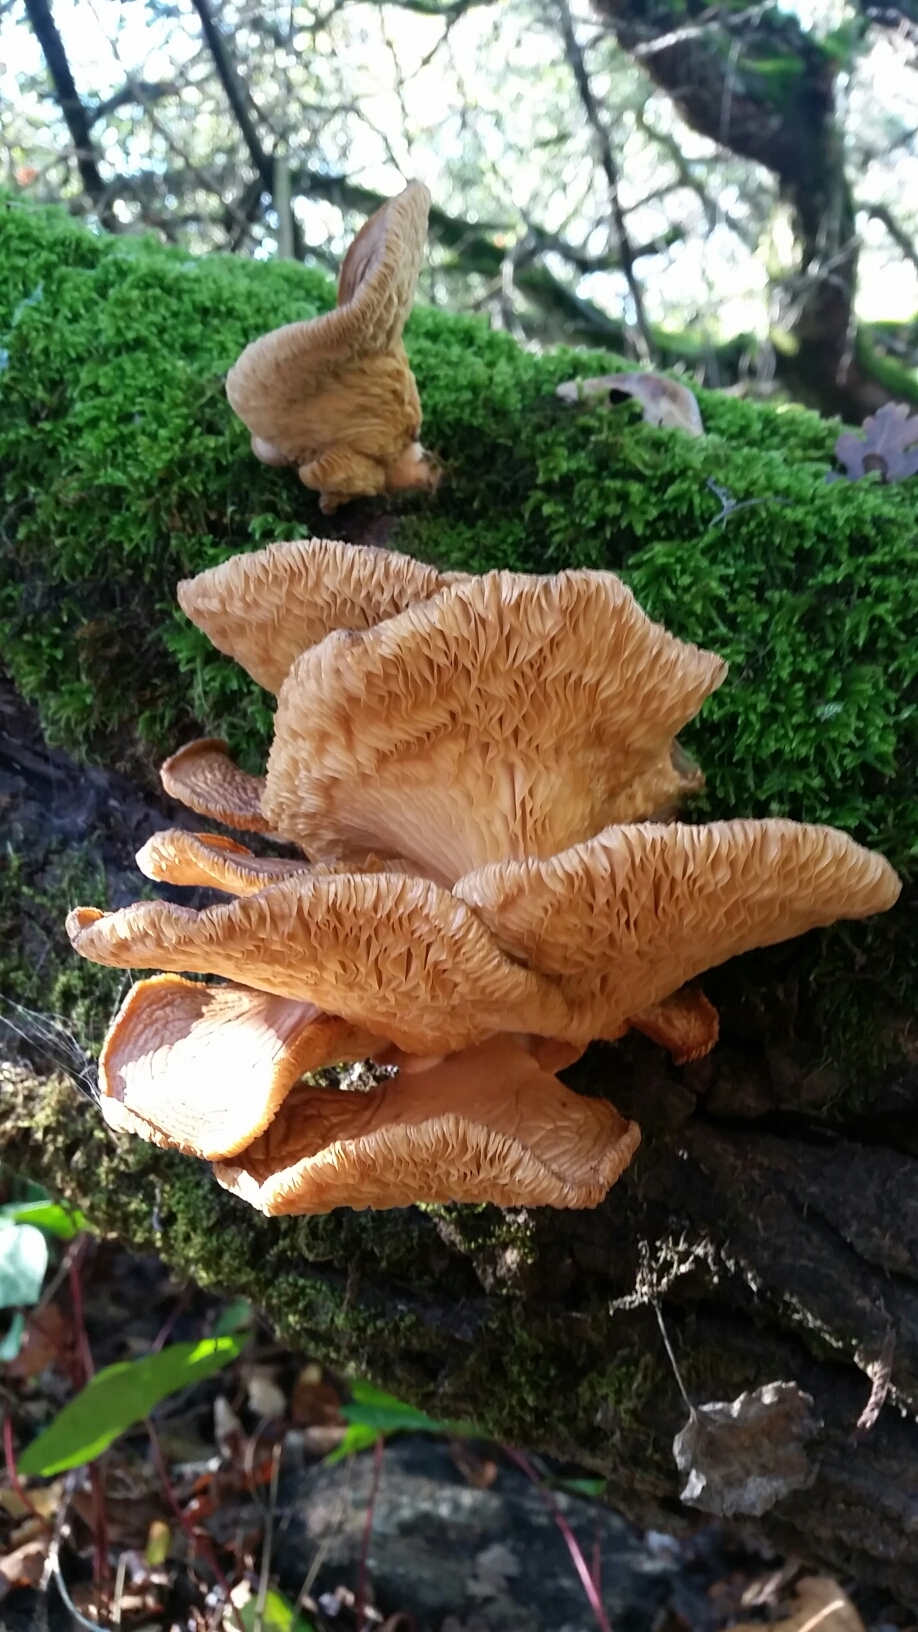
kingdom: Fungi
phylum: Basidiomycota
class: Agaricomycetes
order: Agaricales
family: Pleurotaceae
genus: Pleurotus
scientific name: Pleurotus ostreatus
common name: Oyster mushroom
